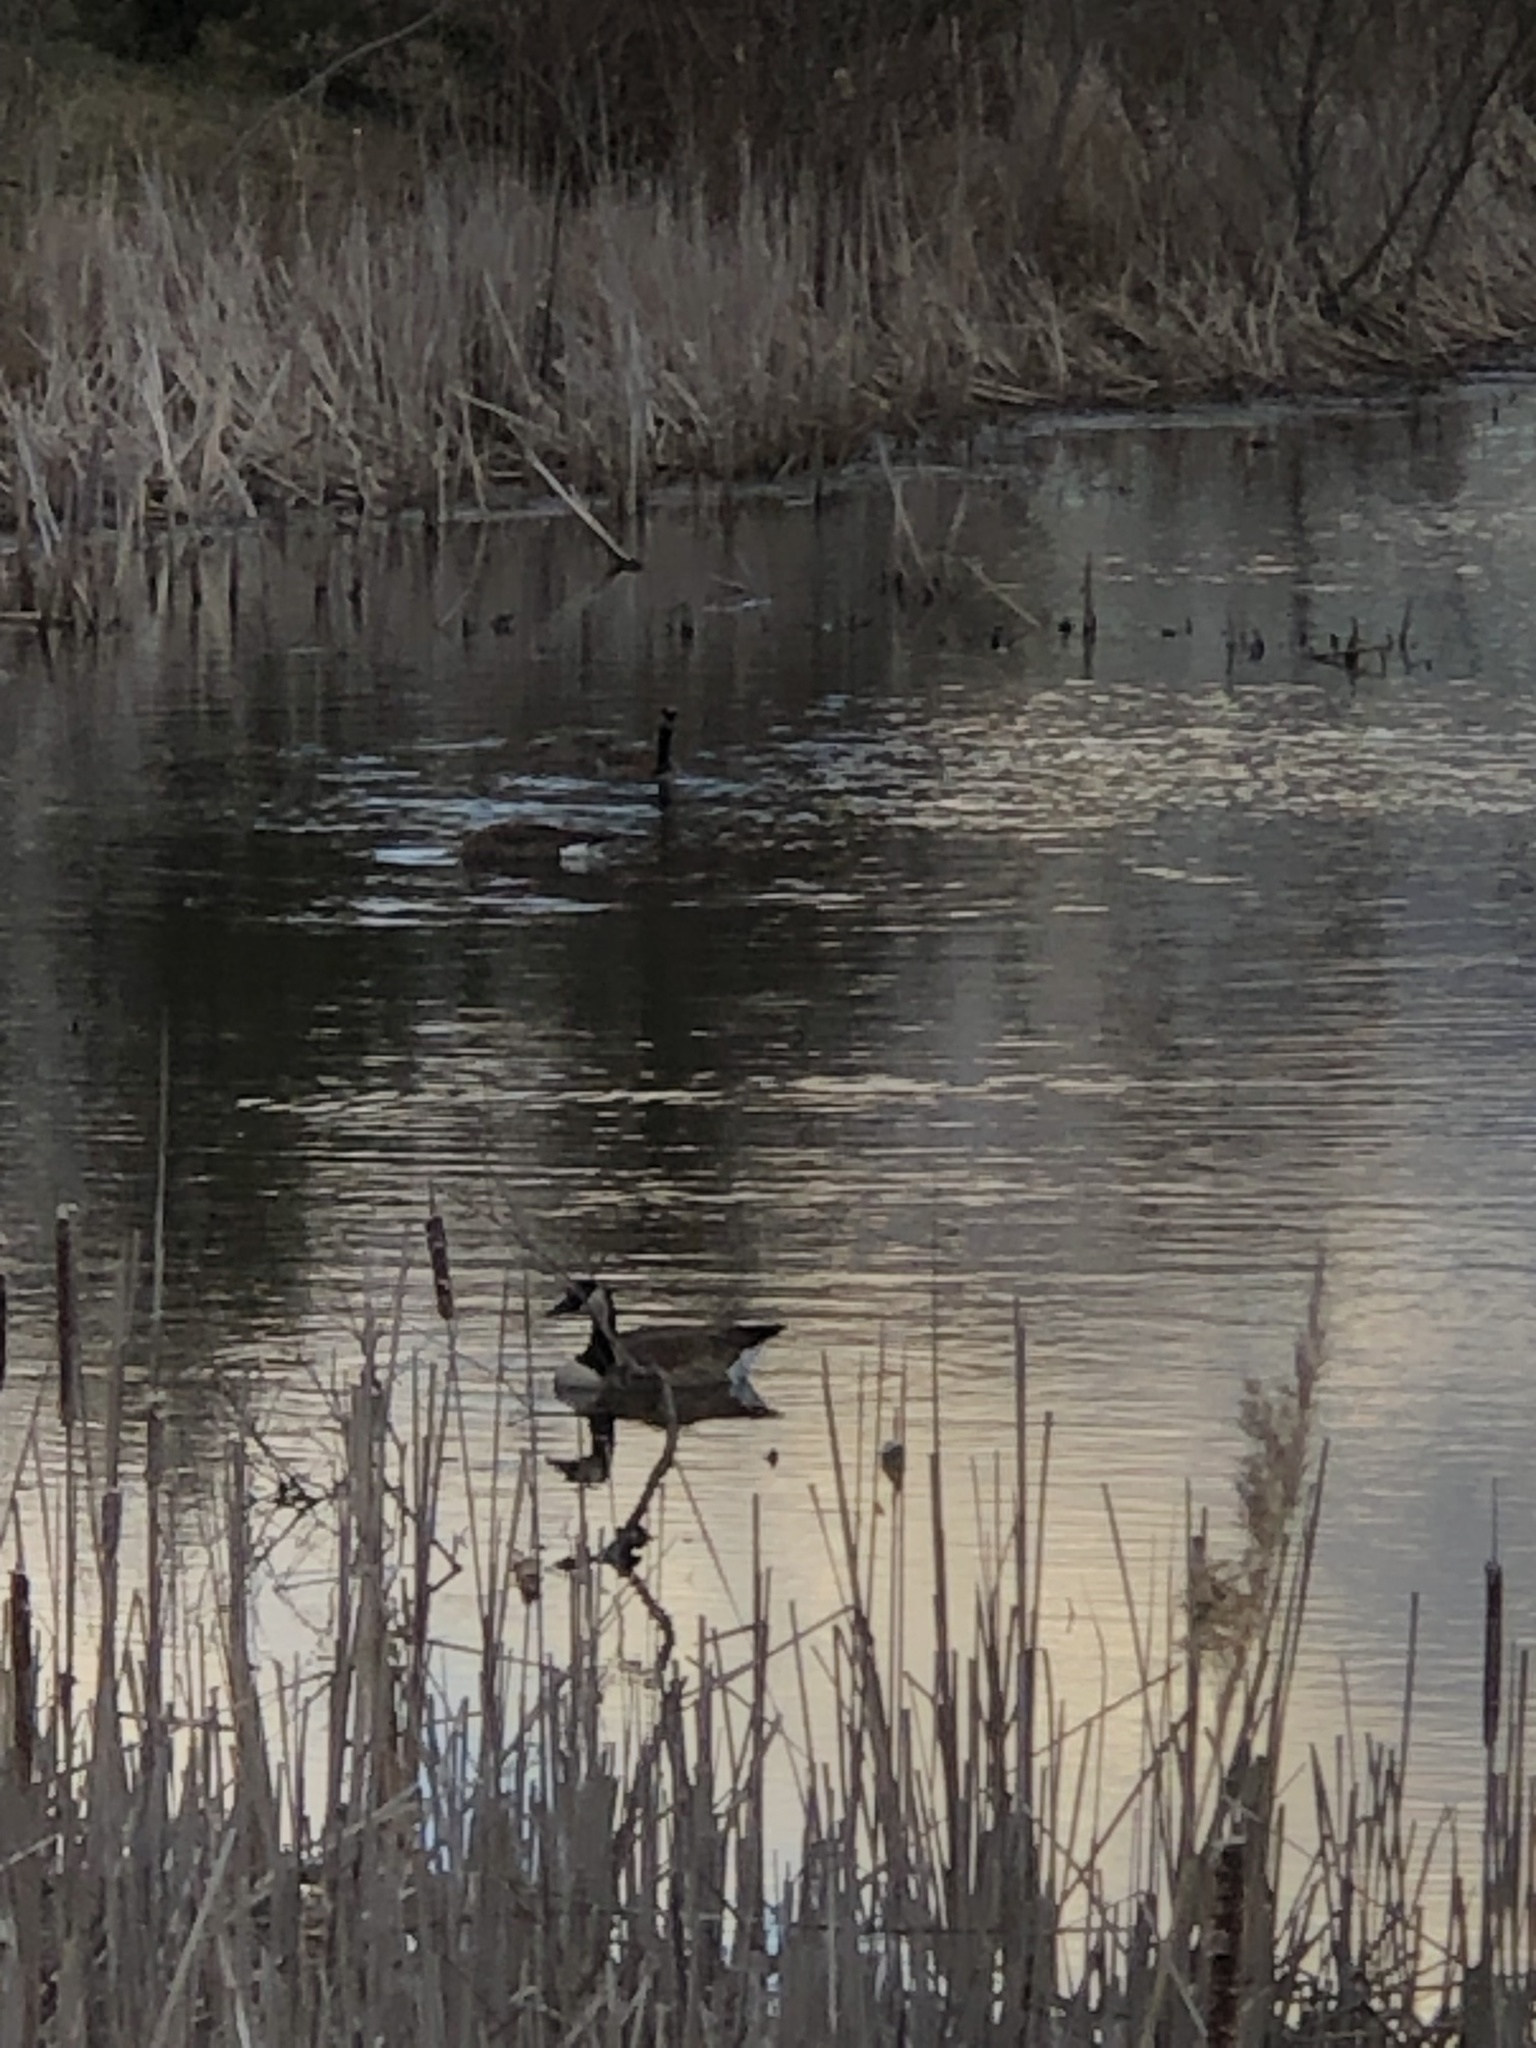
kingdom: Animalia
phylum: Chordata
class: Aves
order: Anseriformes
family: Anatidae
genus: Branta
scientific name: Branta canadensis
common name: Canada goose
